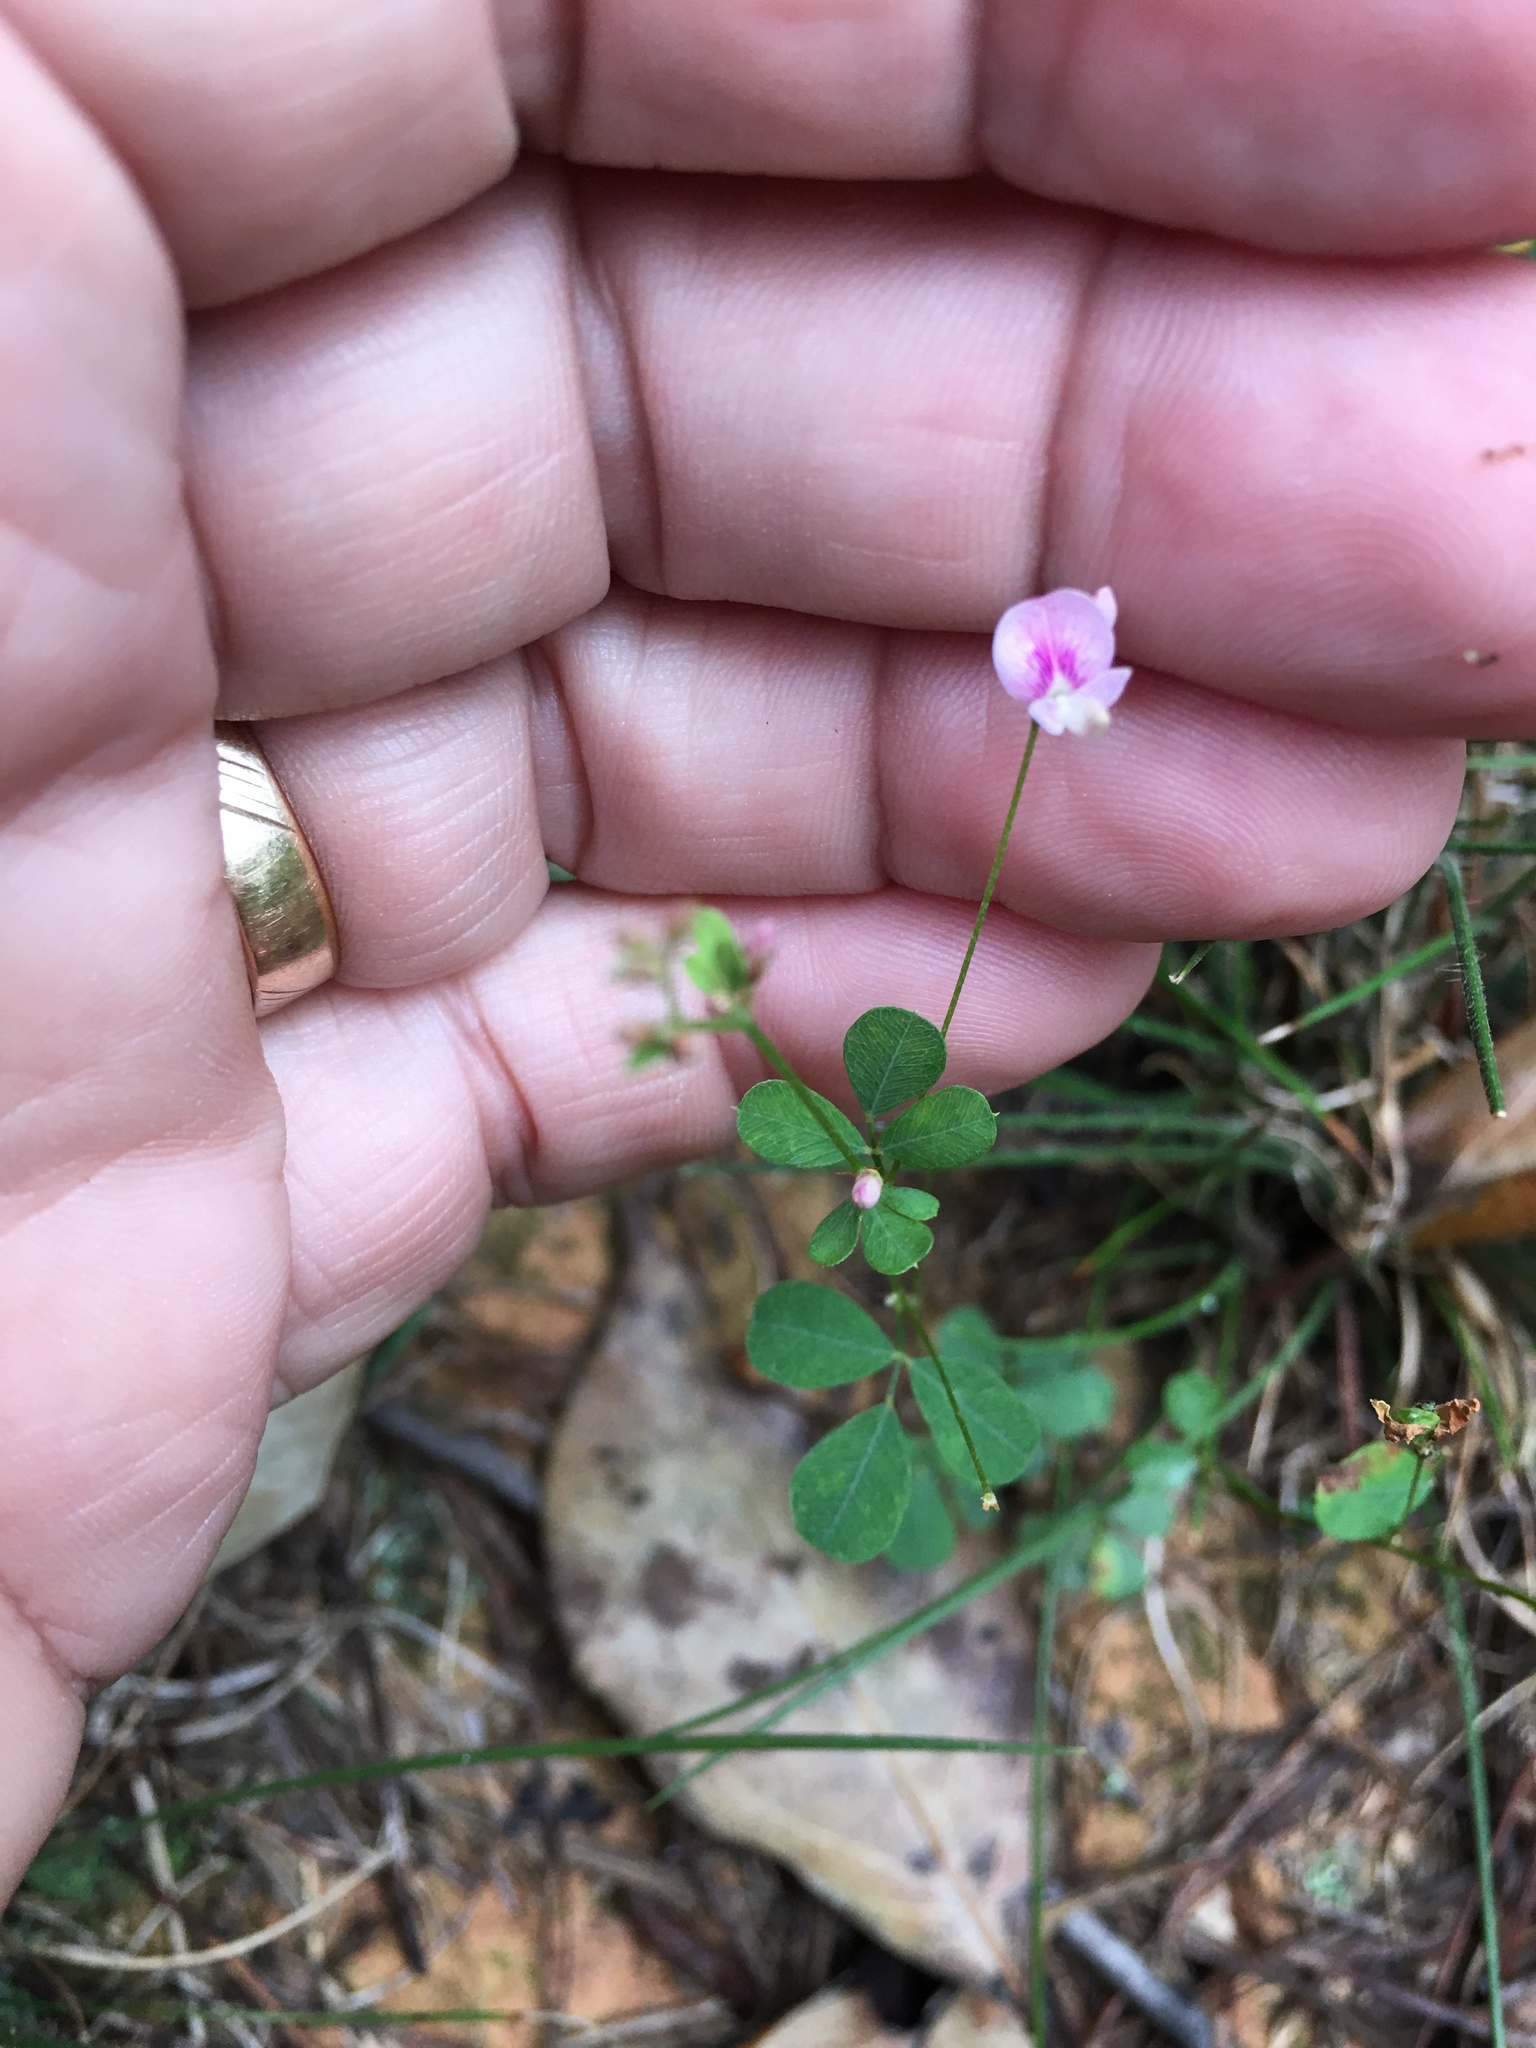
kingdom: Plantae
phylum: Tracheophyta
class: Magnoliopsida
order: Fabales
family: Fabaceae
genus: Lespedeza
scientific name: Lespedeza repens
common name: Creeping bush-clover
